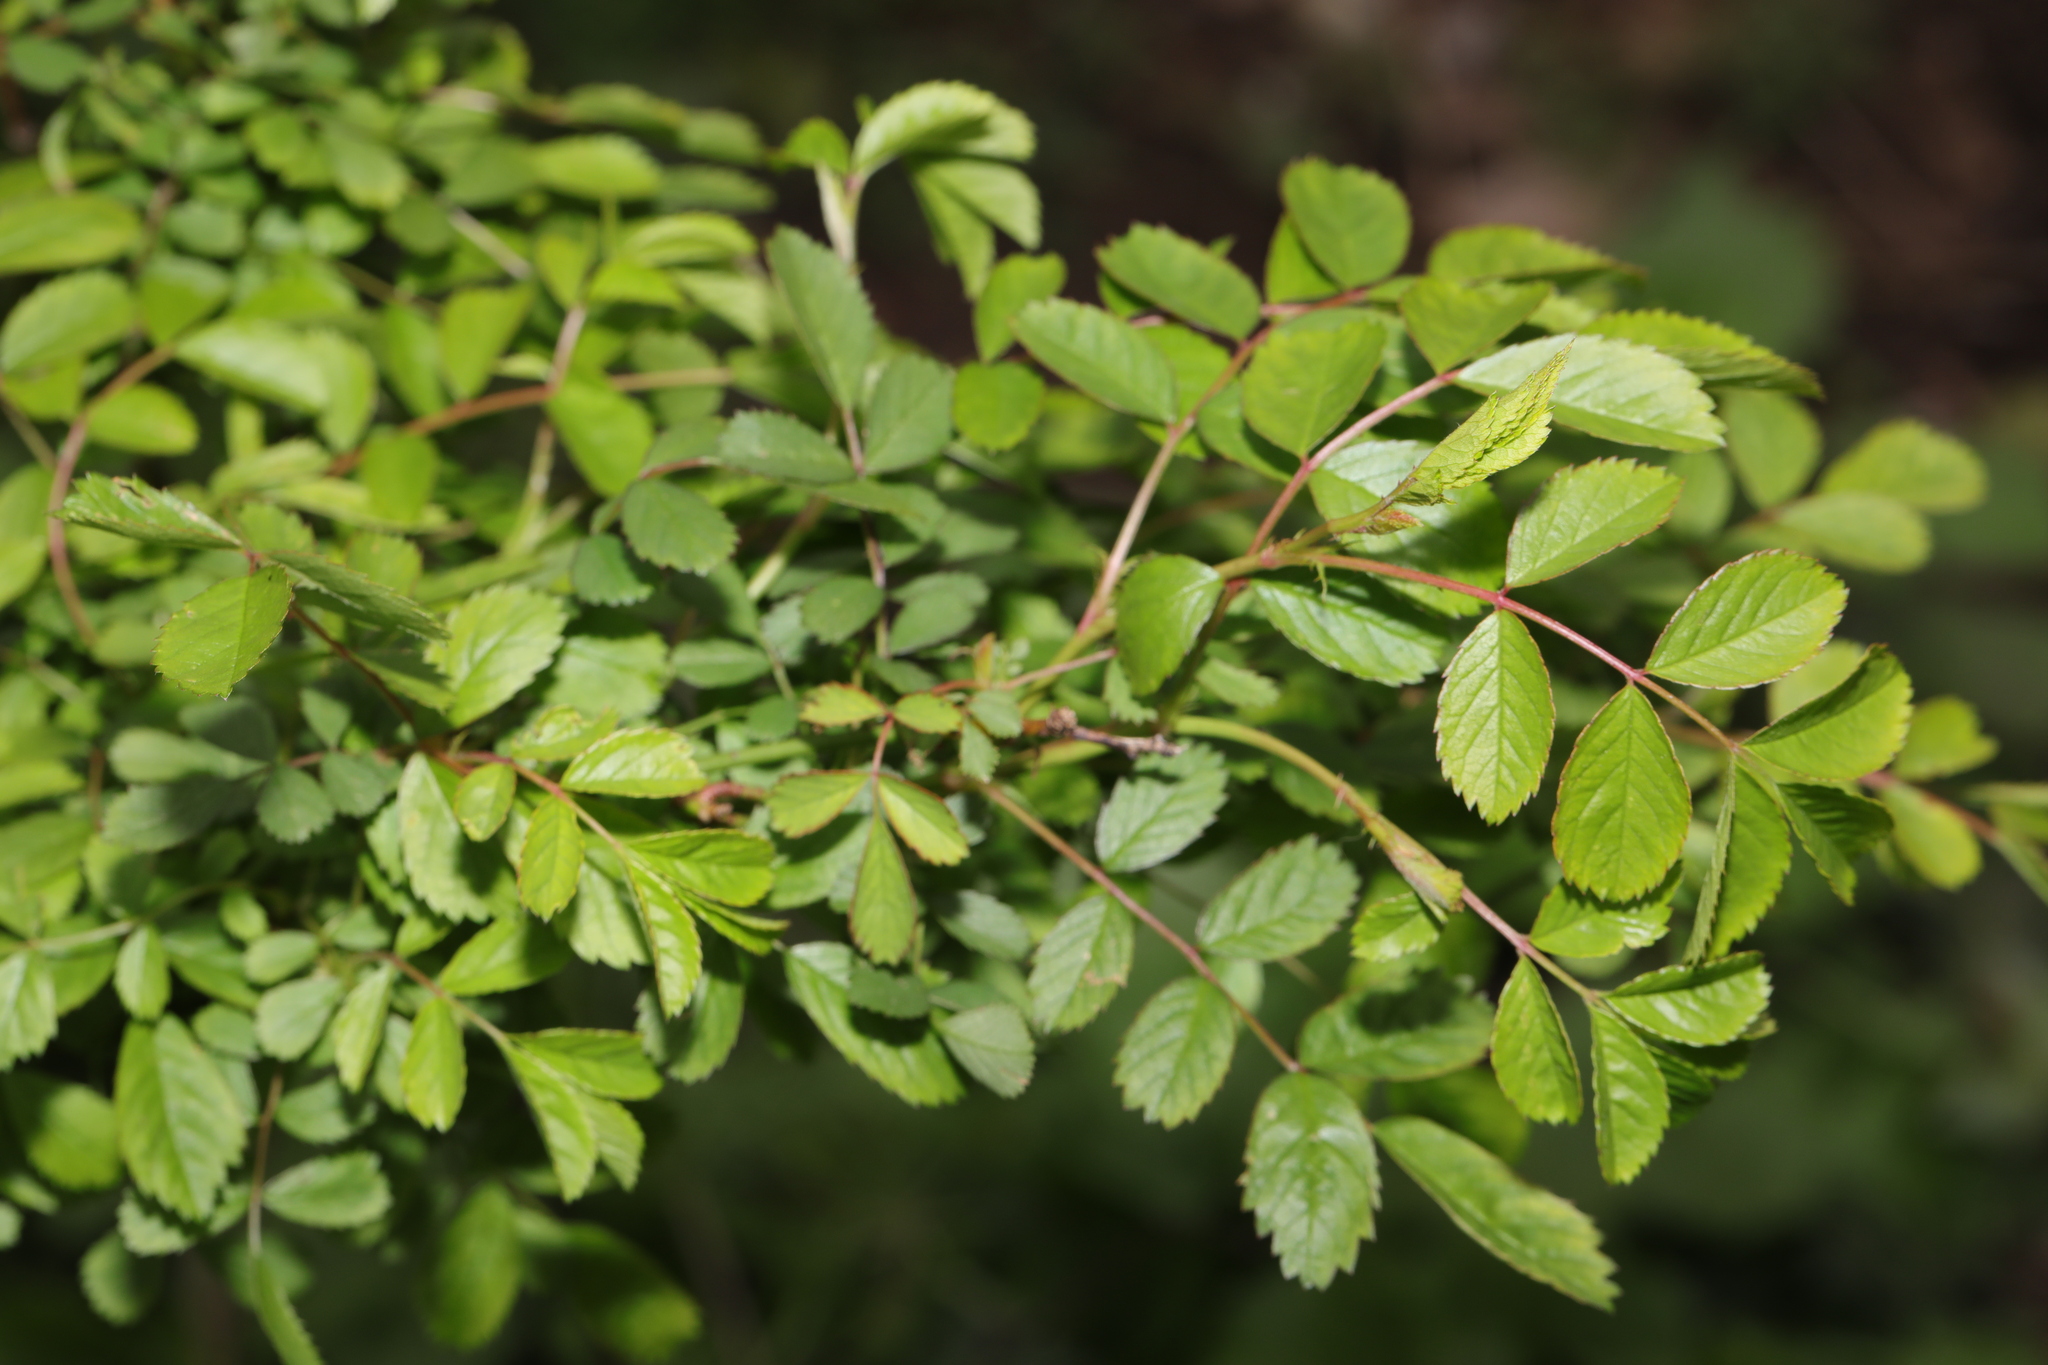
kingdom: Plantae
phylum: Tracheophyta
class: Magnoliopsida
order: Rosales
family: Rosaceae
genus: Rosa
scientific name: Rosa multiflora
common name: Multiflora rose
